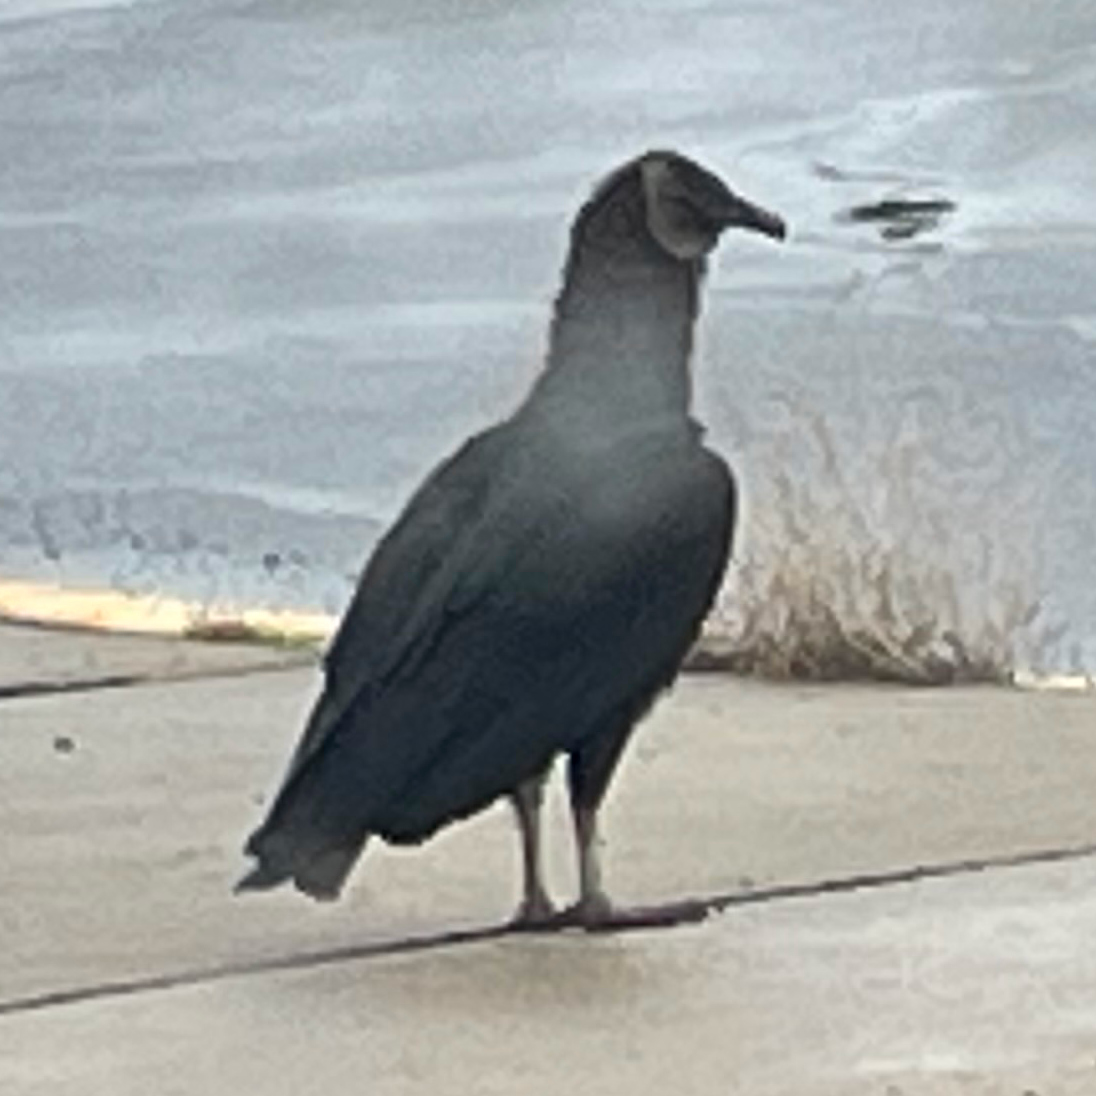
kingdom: Animalia
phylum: Chordata
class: Aves
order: Accipitriformes
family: Cathartidae
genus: Coragyps
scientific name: Coragyps atratus
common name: Black vulture
